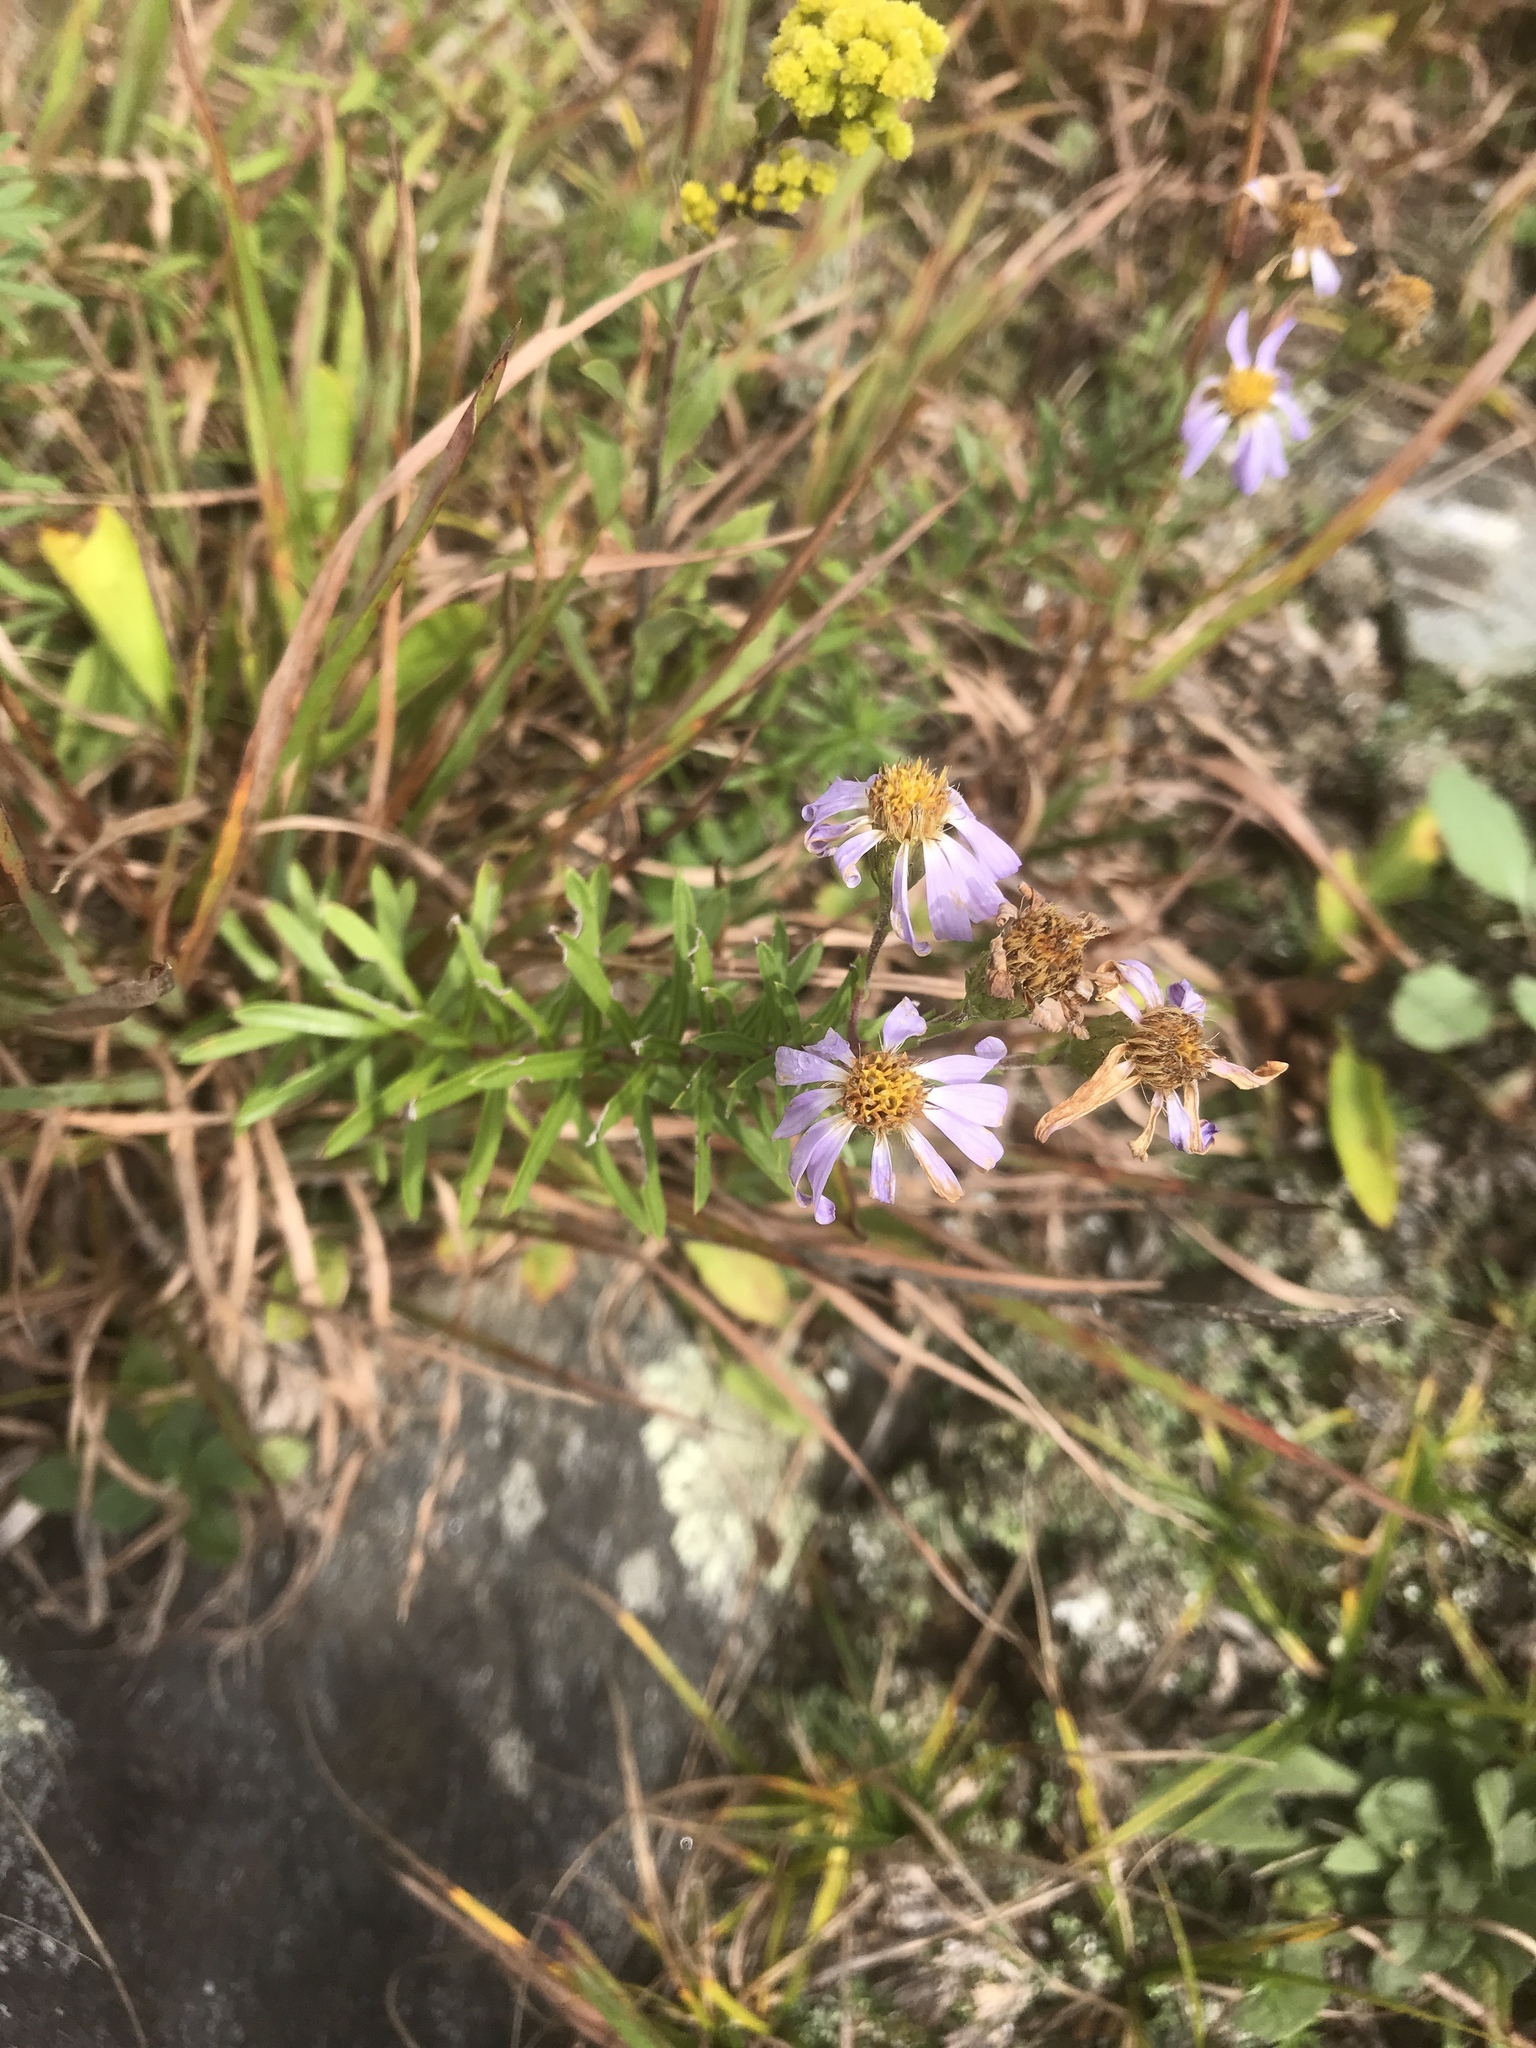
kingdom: Plantae
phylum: Tracheophyta
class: Magnoliopsida
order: Asterales
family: Asteraceae
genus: Ionactis
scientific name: Ionactis linariifolia
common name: Flax-leaf aster
